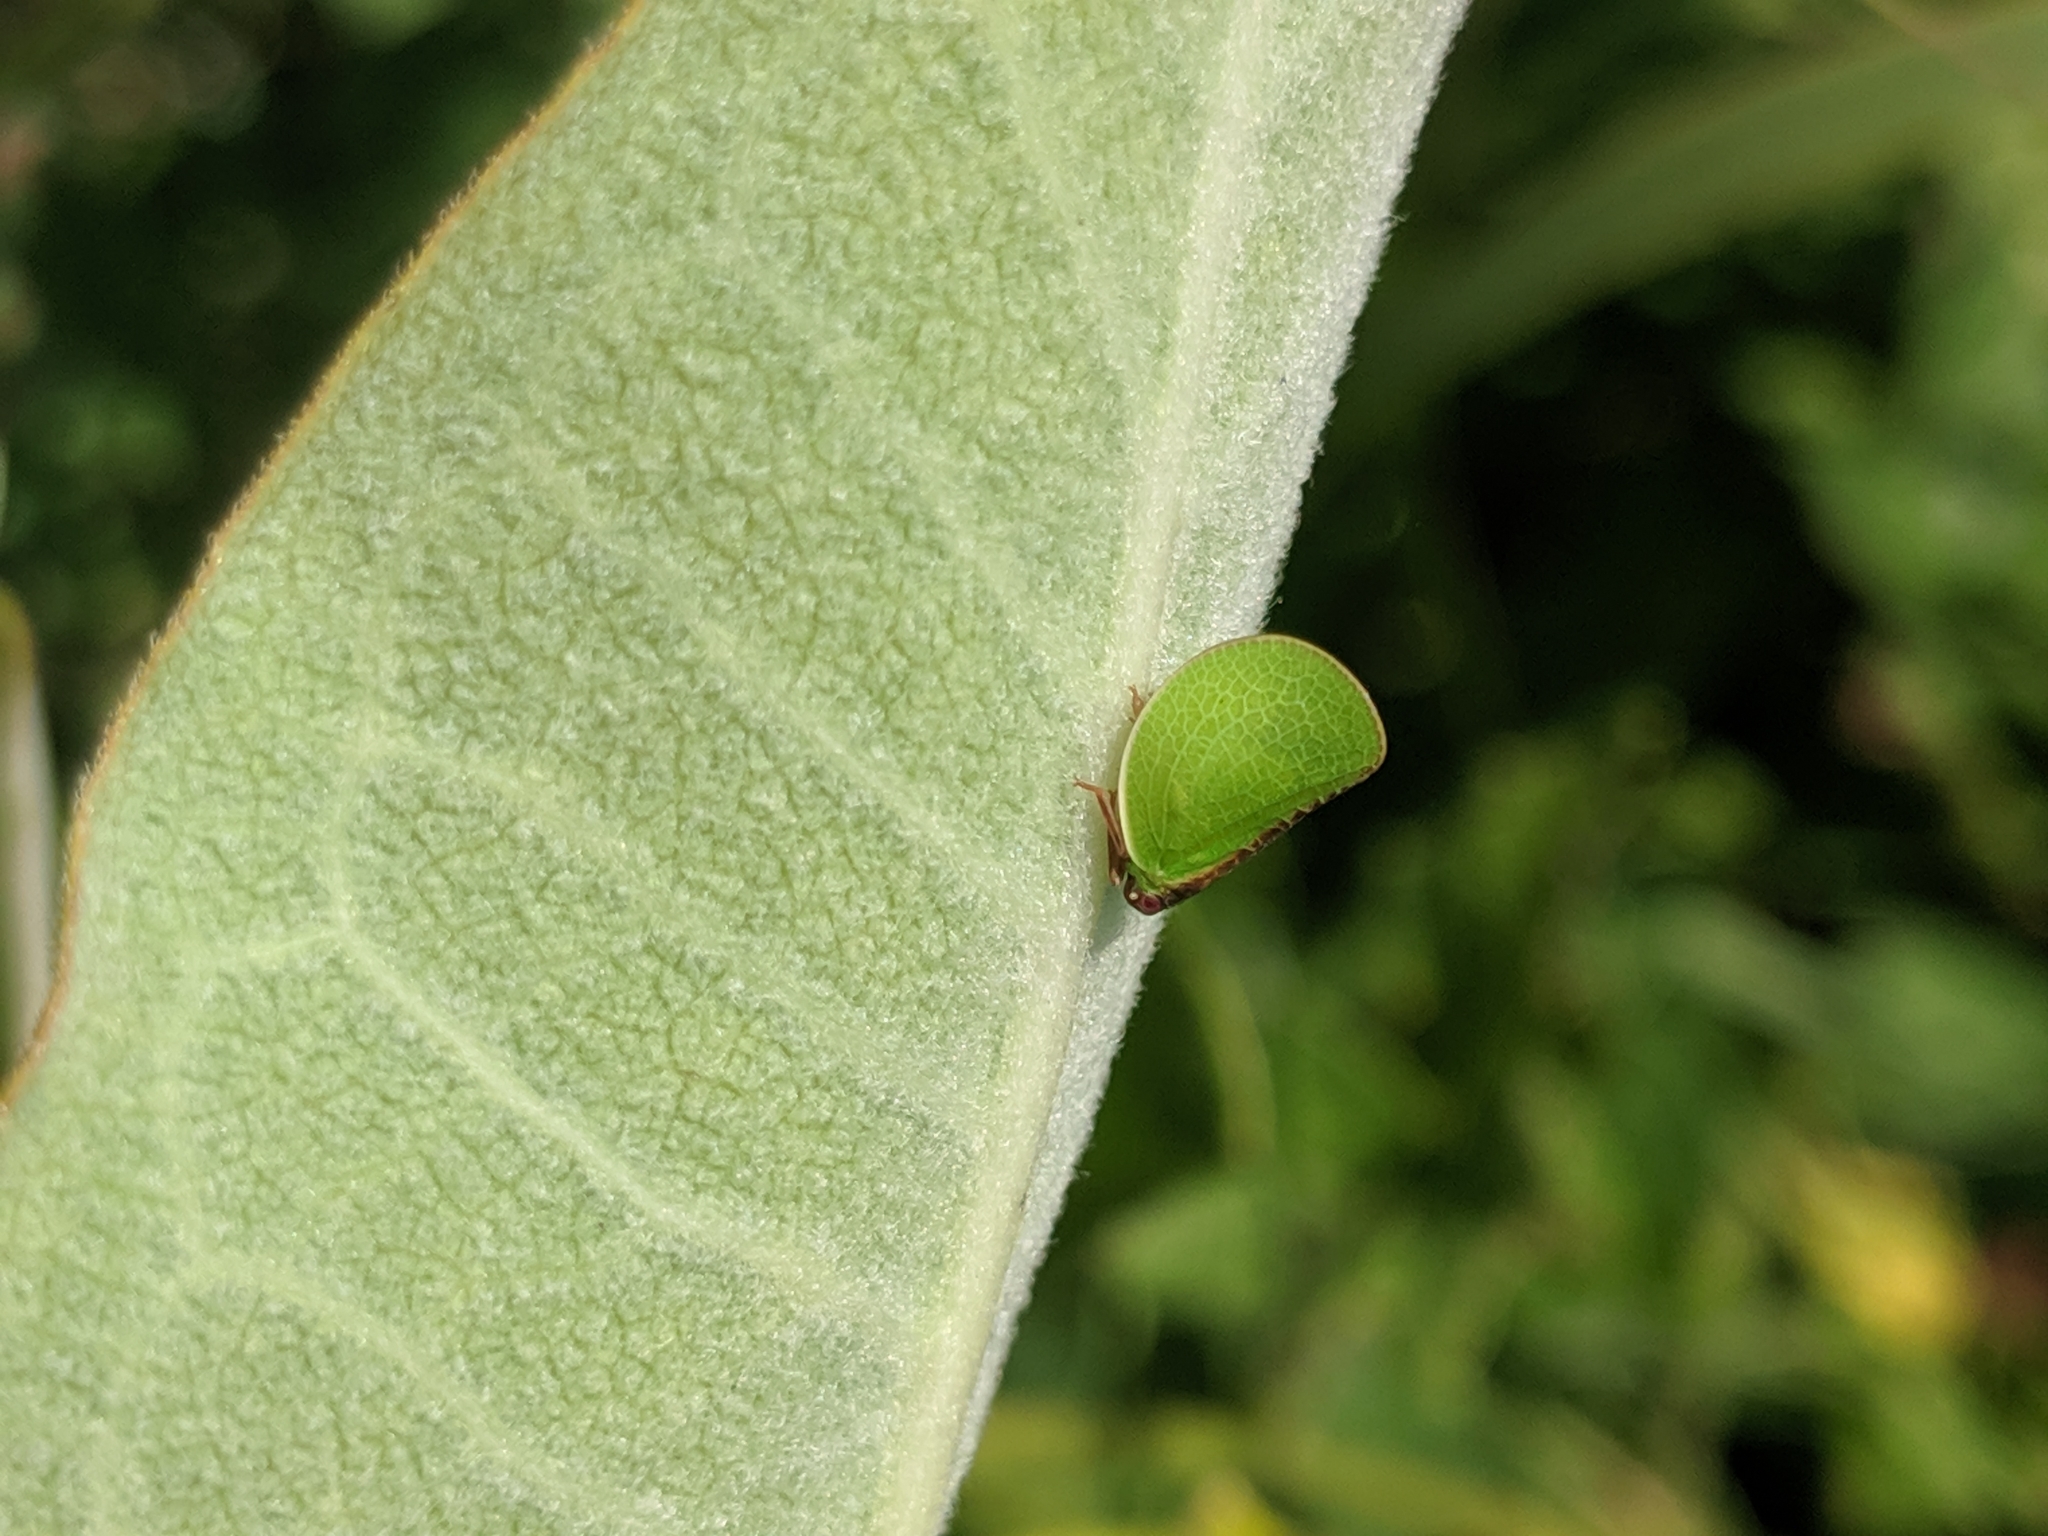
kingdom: Animalia
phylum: Arthropoda
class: Insecta
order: Hemiptera
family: Acanaloniidae
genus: Acanalonia
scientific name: Acanalonia bivittata
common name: Two-striped planthopper
